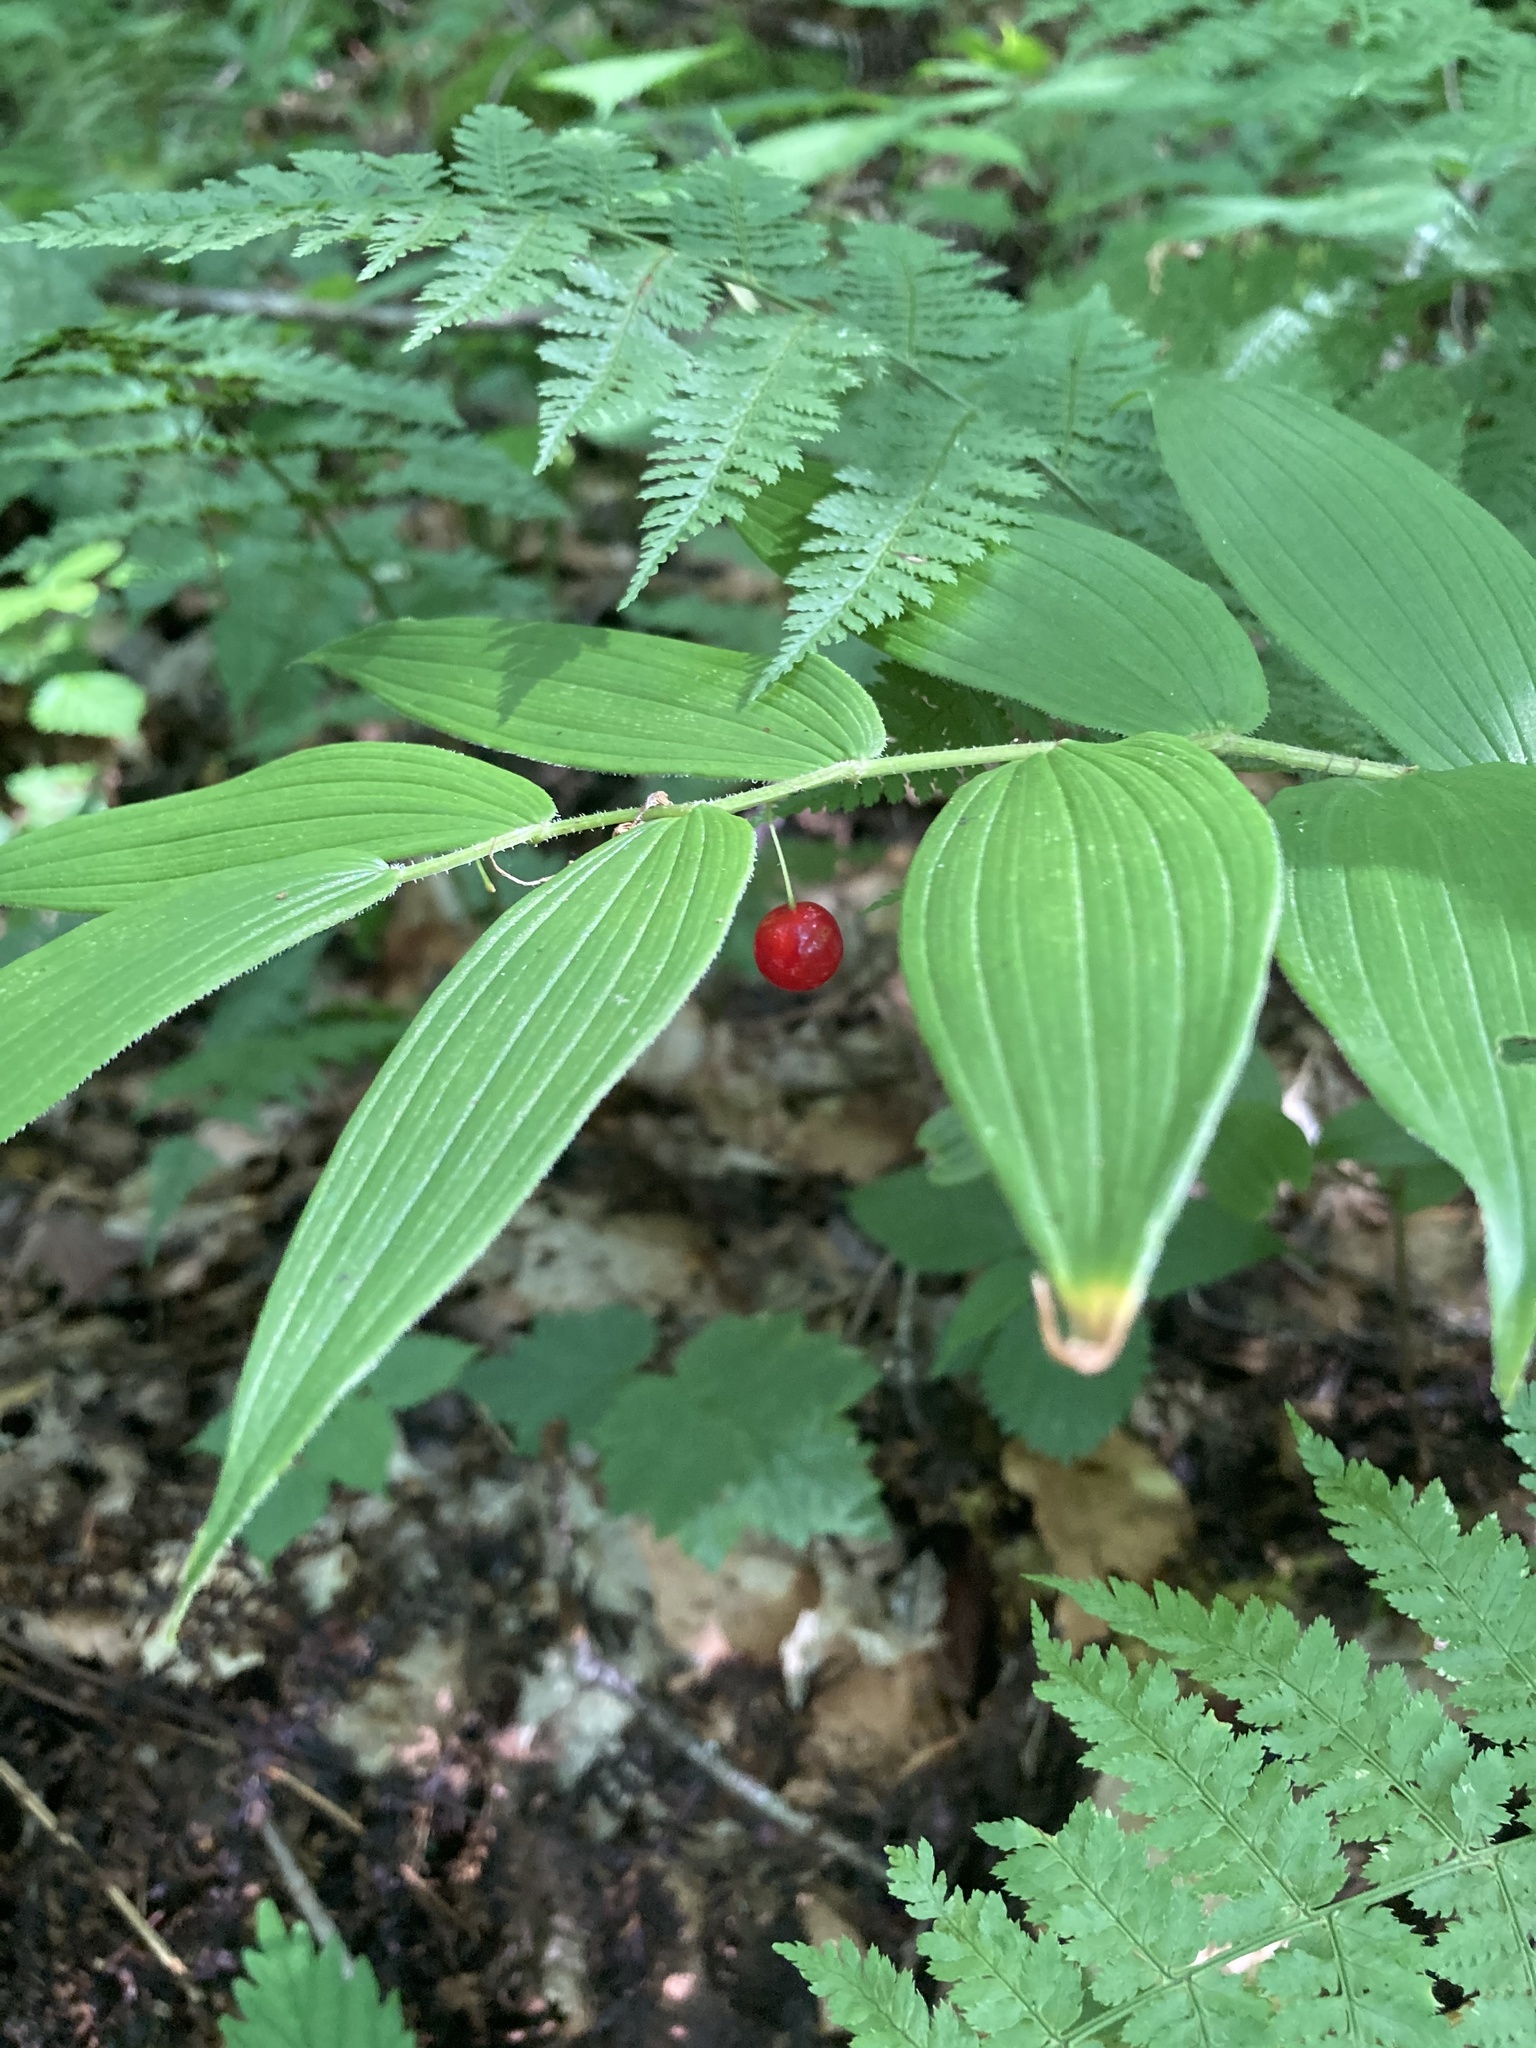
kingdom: Plantae
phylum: Tracheophyta
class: Liliopsida
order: Liliales
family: Liliaceae
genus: Streptopus
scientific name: Streptopus lanceolatus
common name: Rose mandarin
